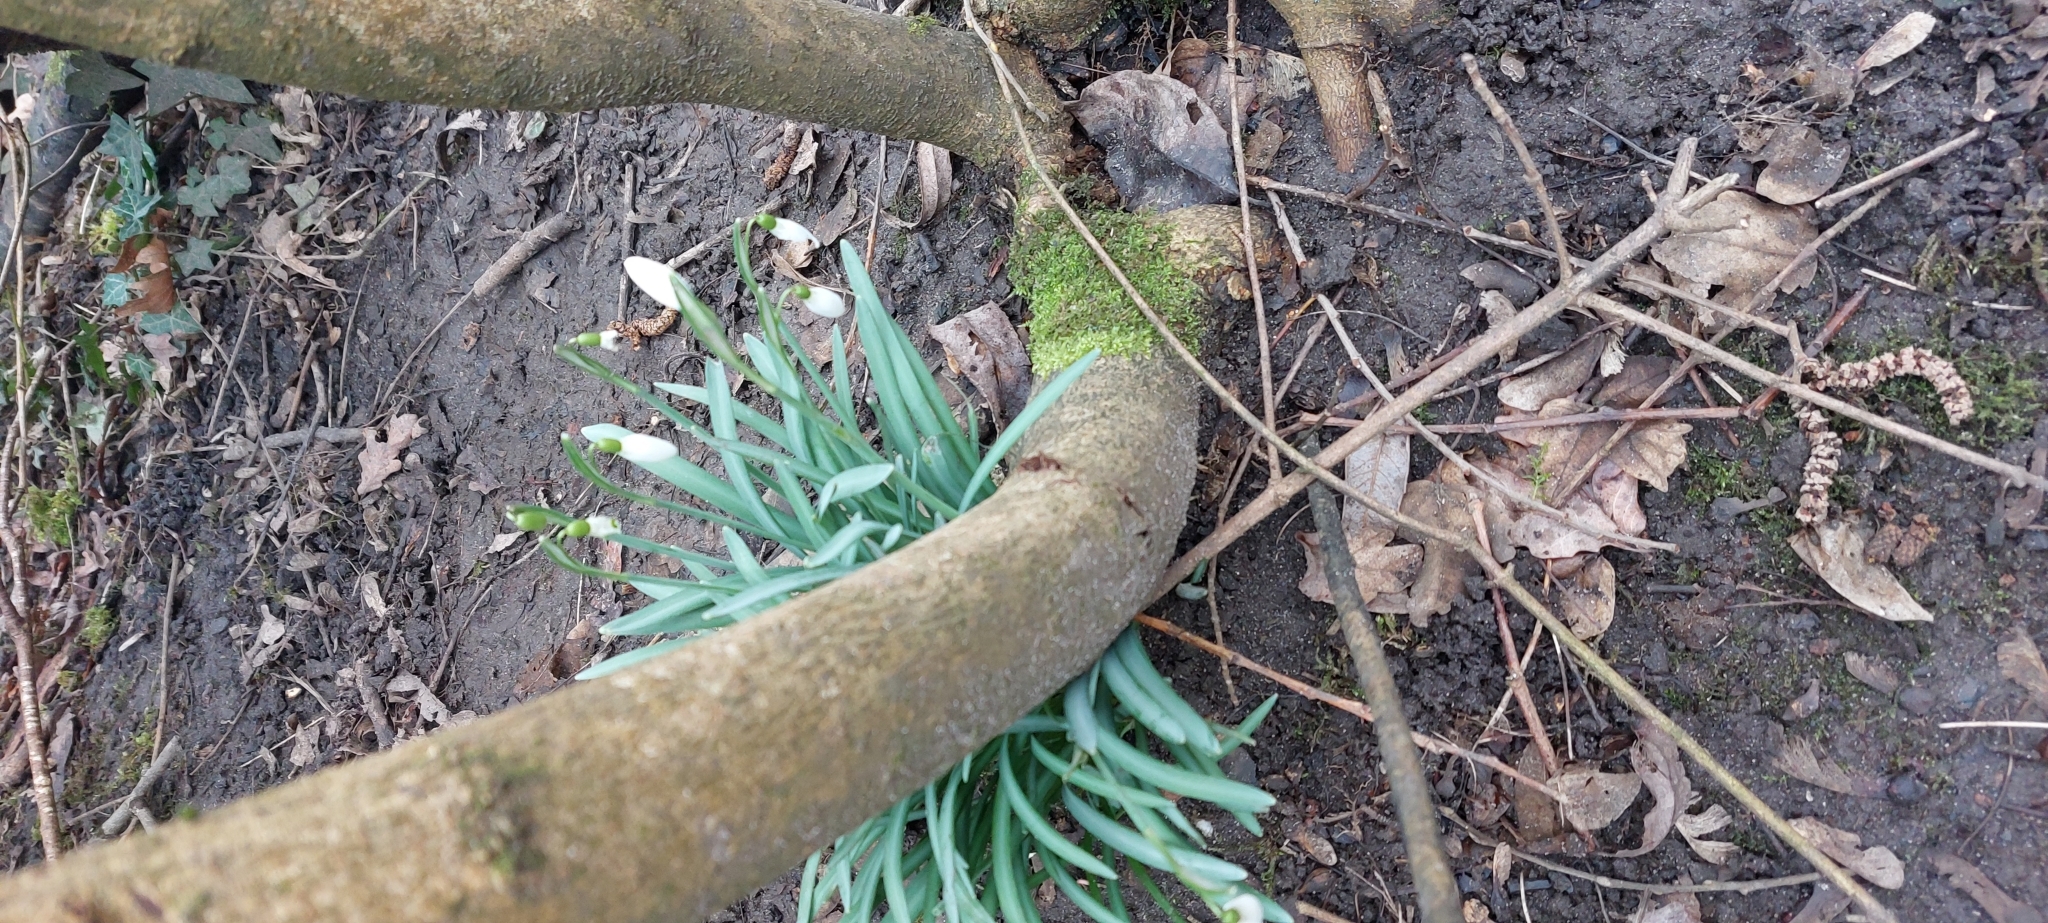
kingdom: Plantae
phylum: Tracheophyta
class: Liliopsida
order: Asparagales
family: Amaryllidaceae
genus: Galanthus
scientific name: Galanthus nivalis
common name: Snowdrop
